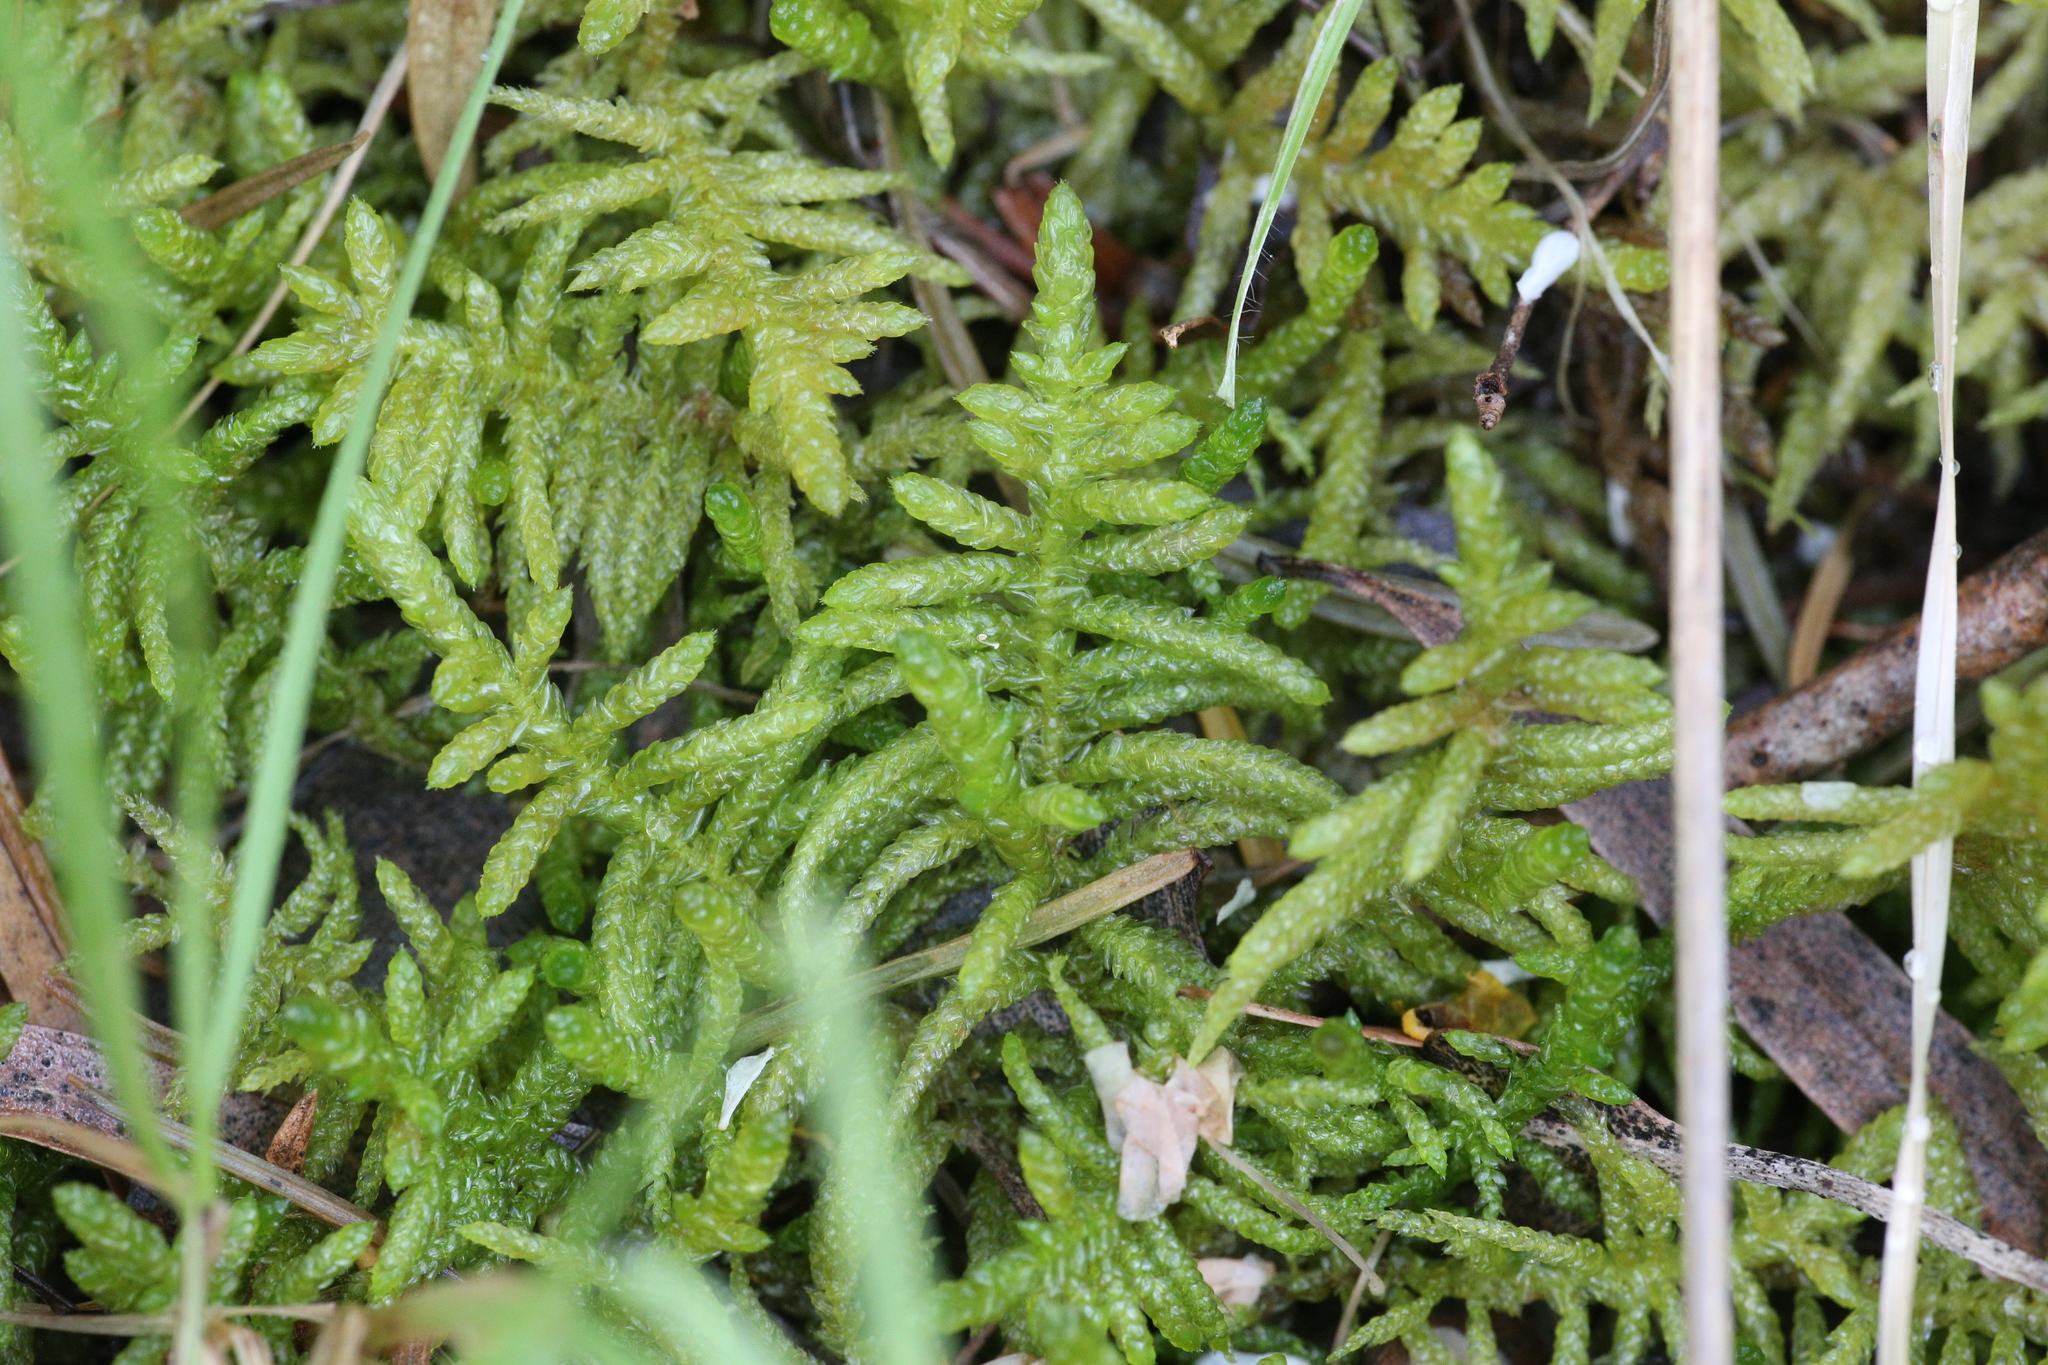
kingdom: Plantae
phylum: Bryophyta
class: Bryopsida
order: Hypnales
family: Brachytheciaceae
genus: Pseudoscleropodium
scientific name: Pseudoscleropodium purum
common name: Neat feather-moss
